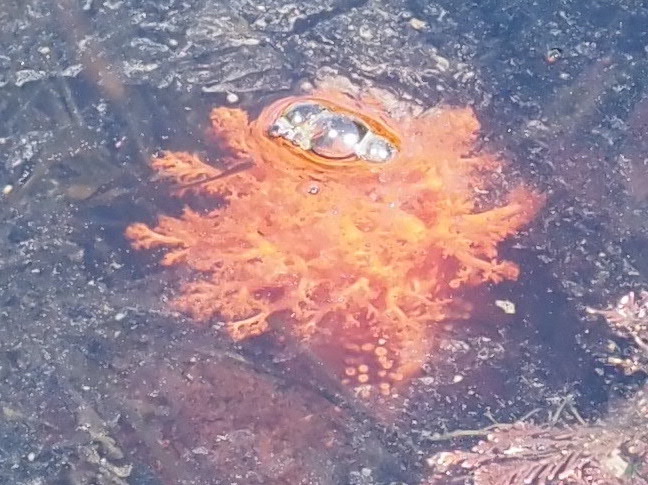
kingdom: Animalia
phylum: Echinodermata
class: Holothuroidea
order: Dendrochirotida
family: Cucumariidae
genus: Cucumaria
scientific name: Cucumaria miniata
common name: Orange sea cucumber
